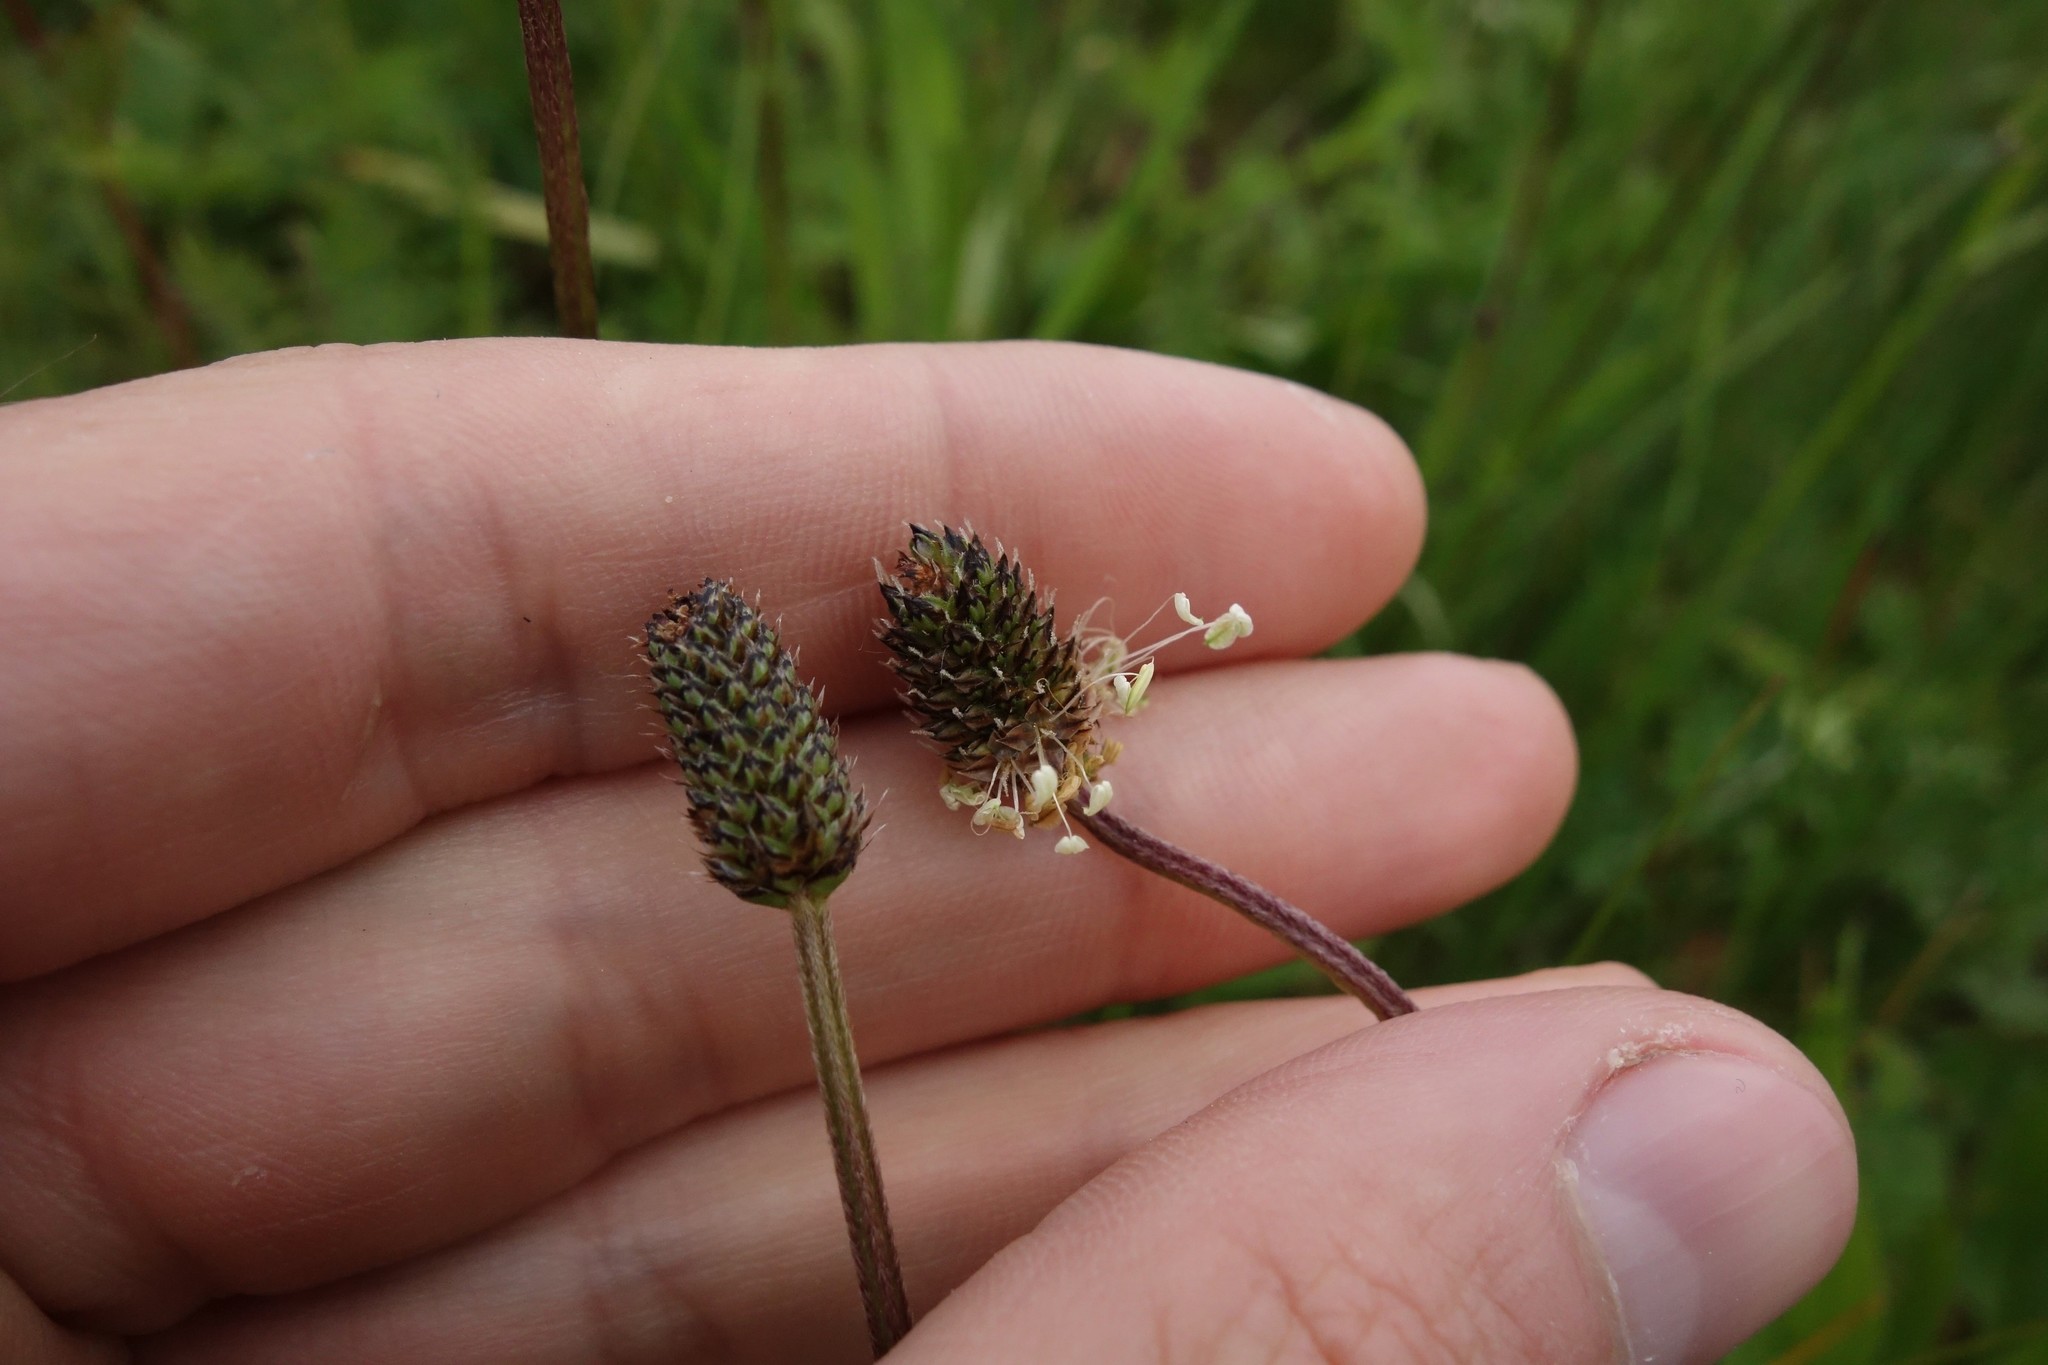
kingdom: Plantae
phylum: Tracheophyta
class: Magnoliopsida
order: Lamiales
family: Plantaginaceae
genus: Plantago
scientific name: Plantago lanceolata
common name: Ribwort plantain
